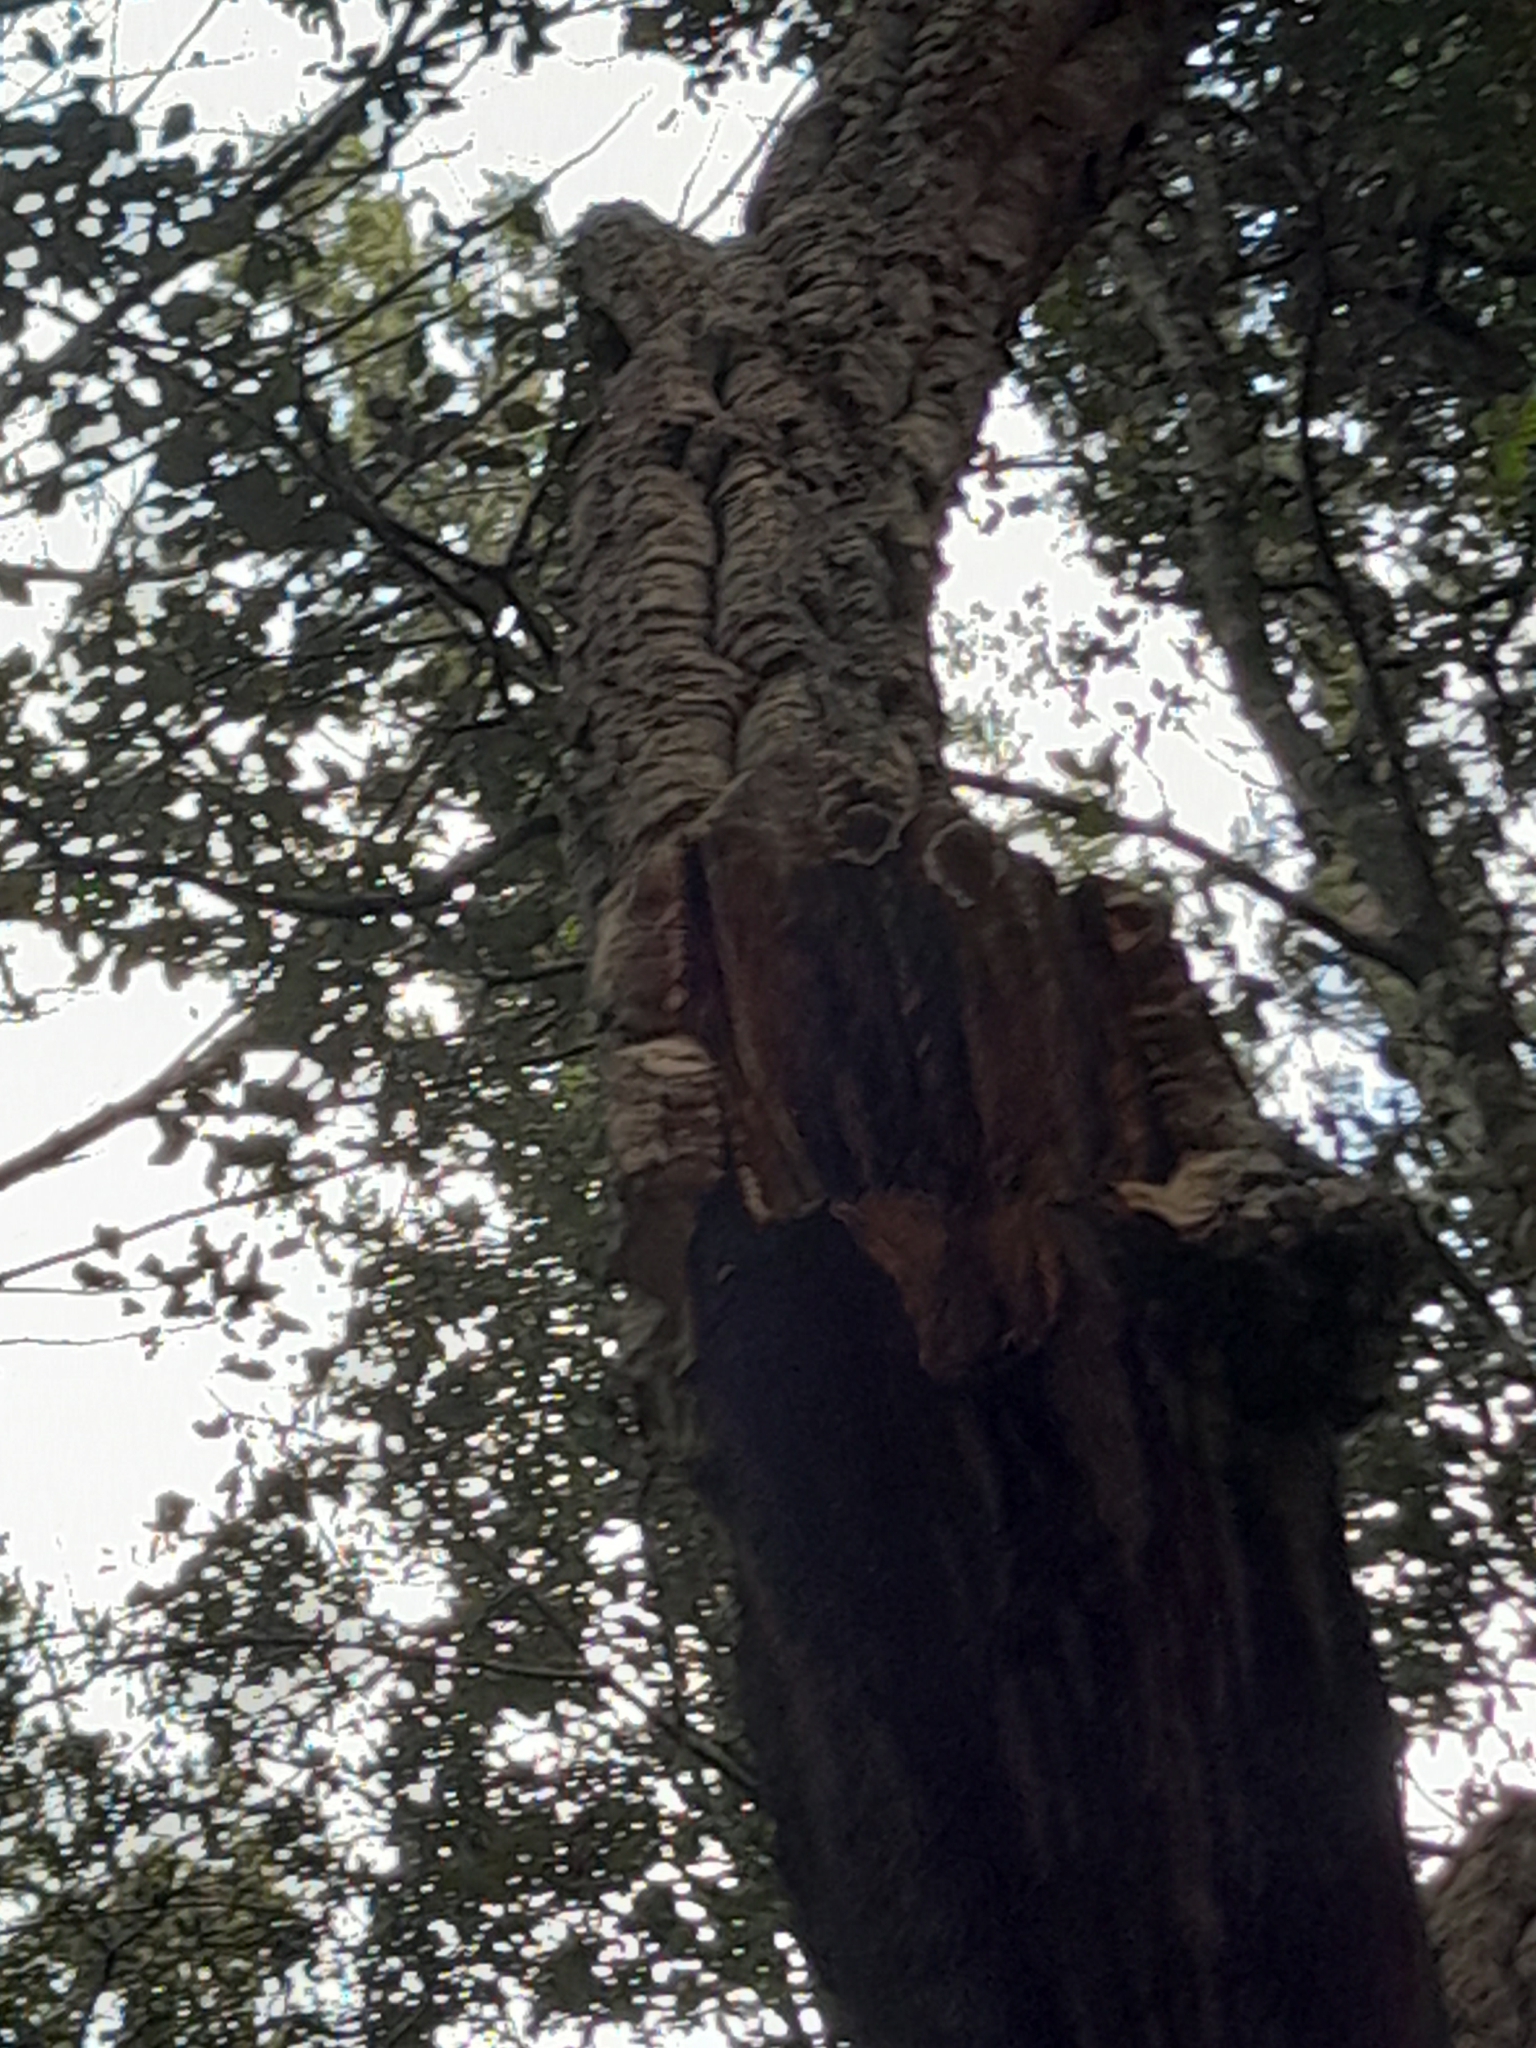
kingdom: Plantae
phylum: Tracheophyta
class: Magnoliopsida
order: Fagales
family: Fagaceae
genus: Quercus
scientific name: Quercus suber
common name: Cork oak
